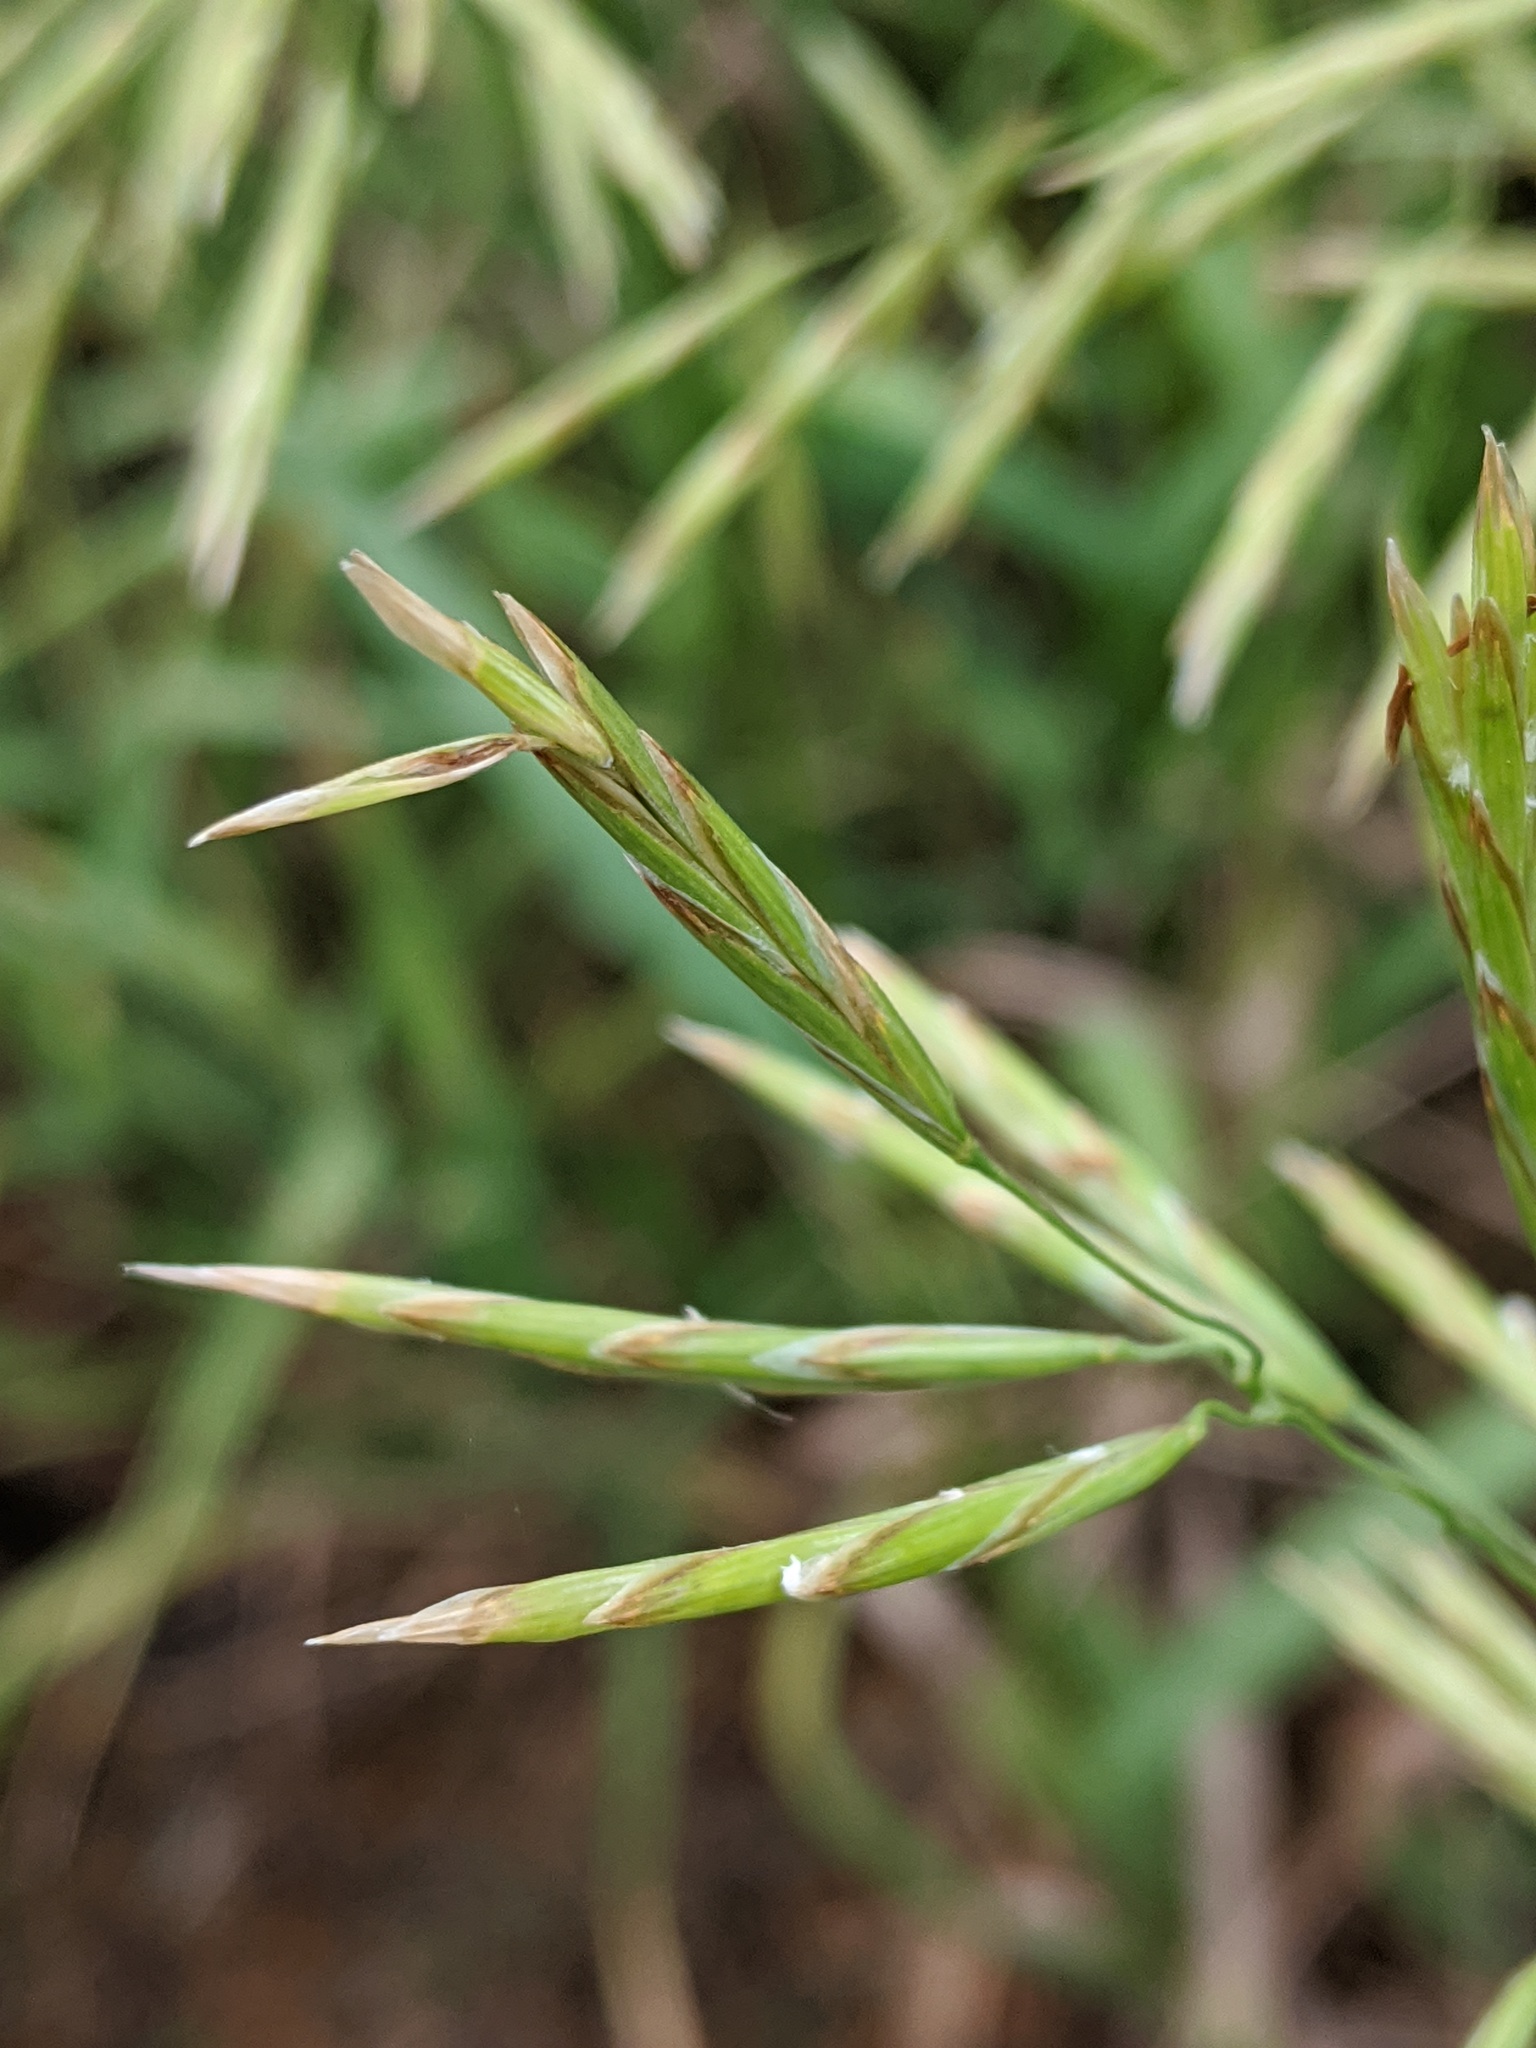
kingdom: Plantae
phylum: Tracheophyta
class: Liliopsida
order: Poales
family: Poaceae
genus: Bromus
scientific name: Bromus inermis
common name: Smooth brome
